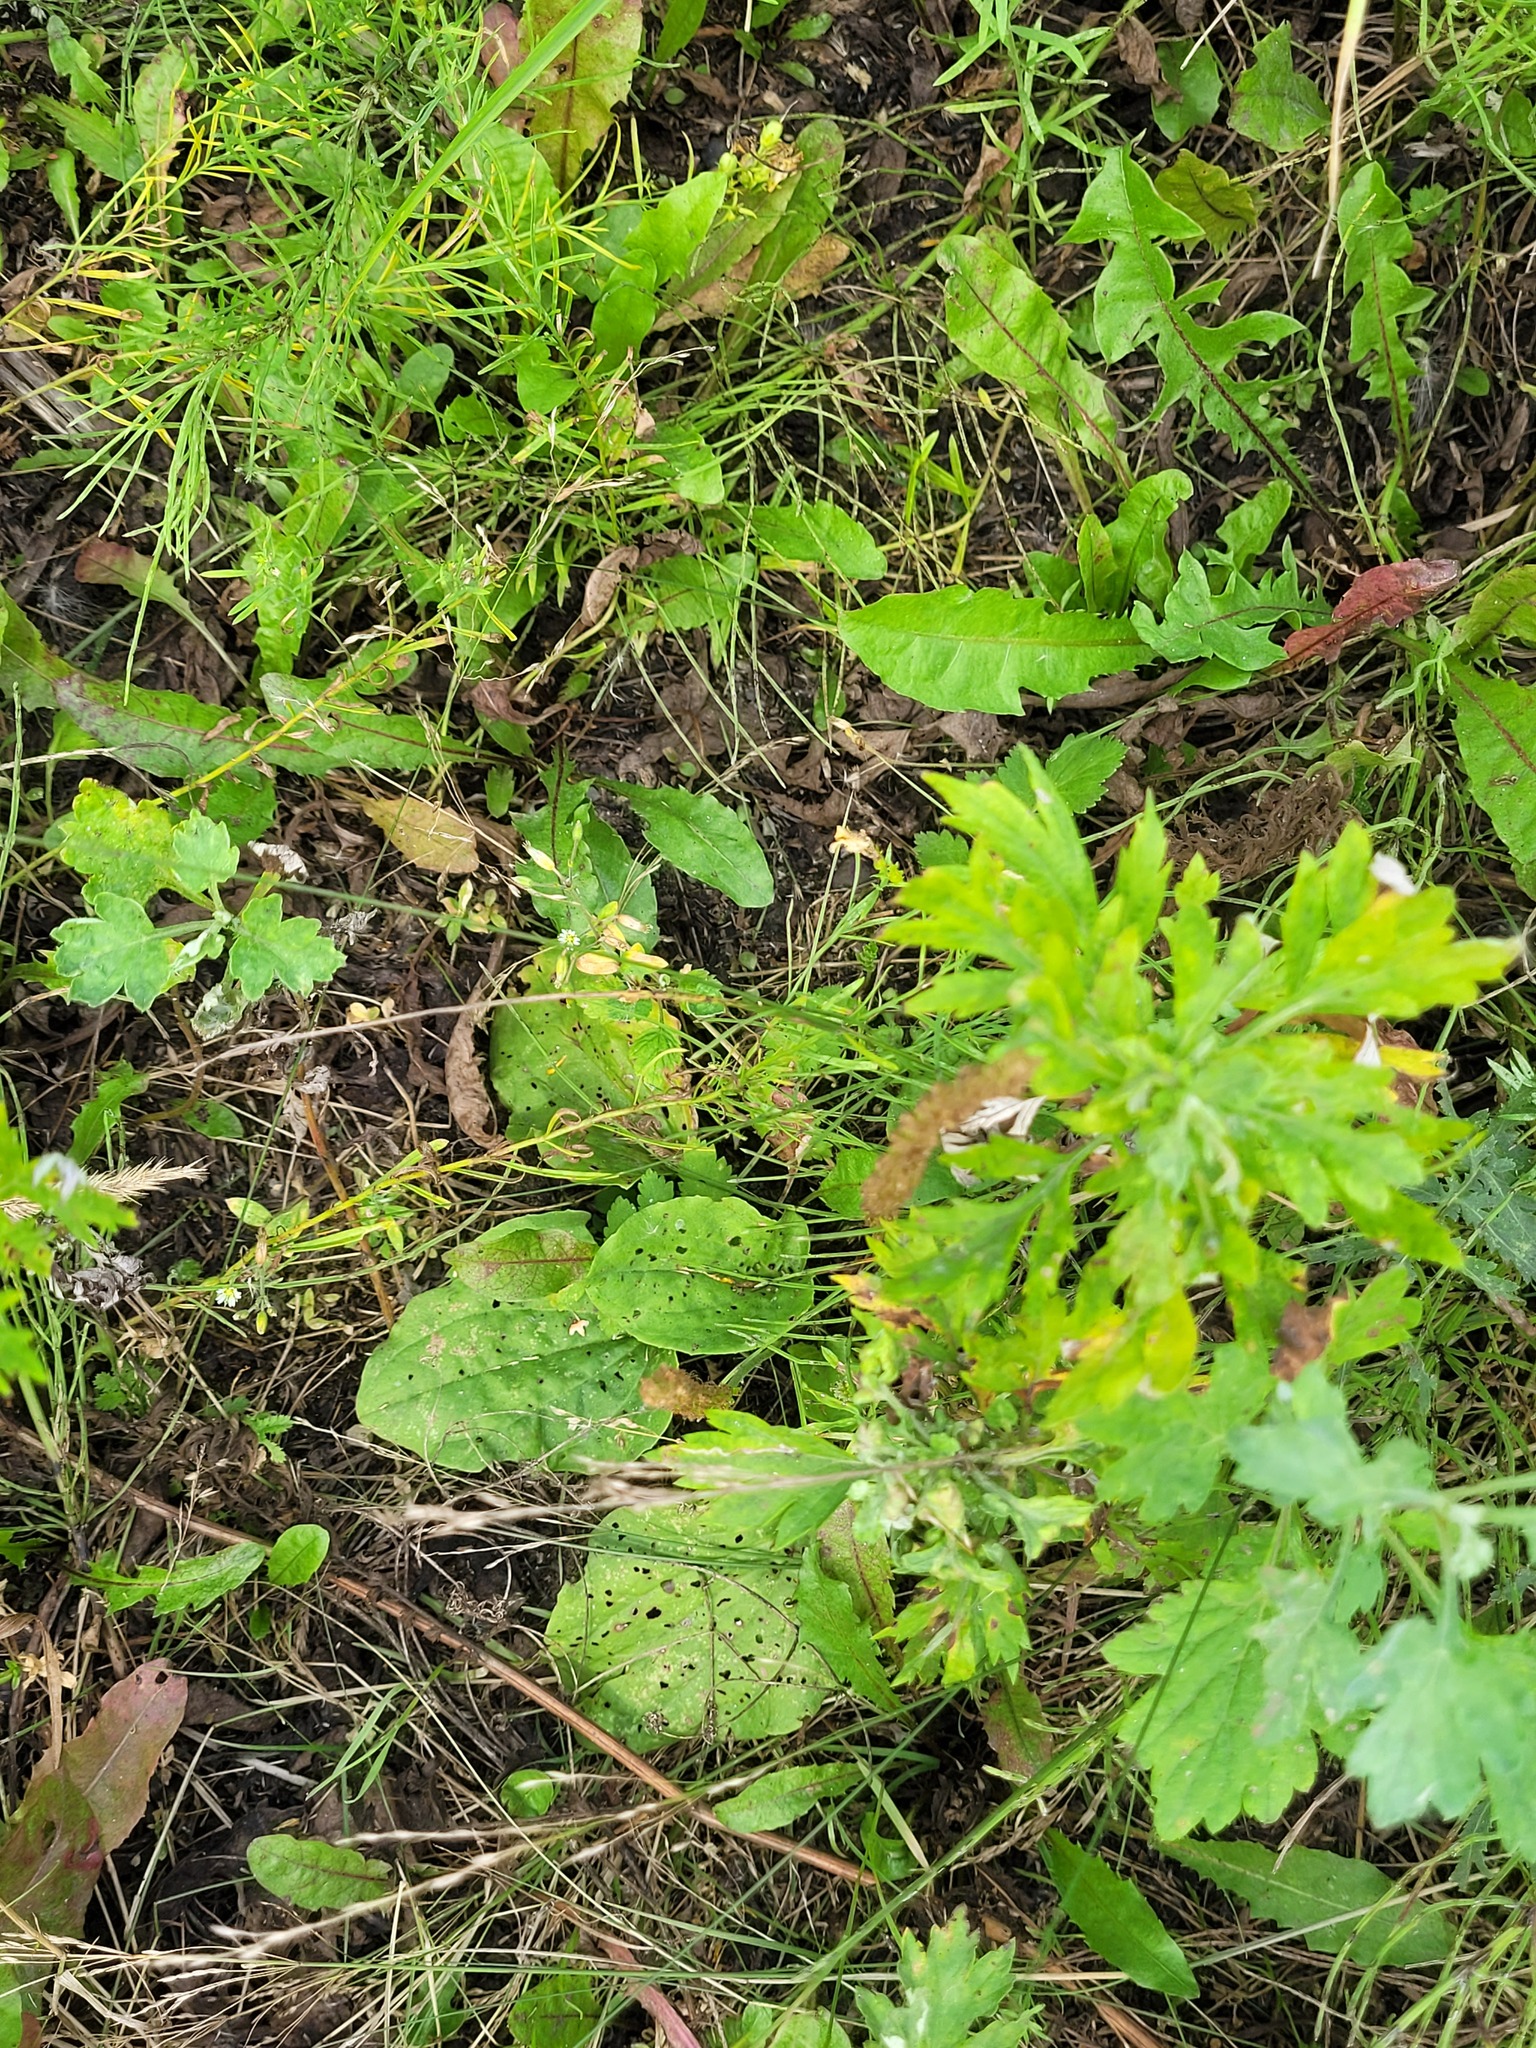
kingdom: Plantae
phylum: Tracheophyta
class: Magnoliopsida
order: Lamiales
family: Plantaginaceae
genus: Plantago
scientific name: Plantago major
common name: Common plantain
